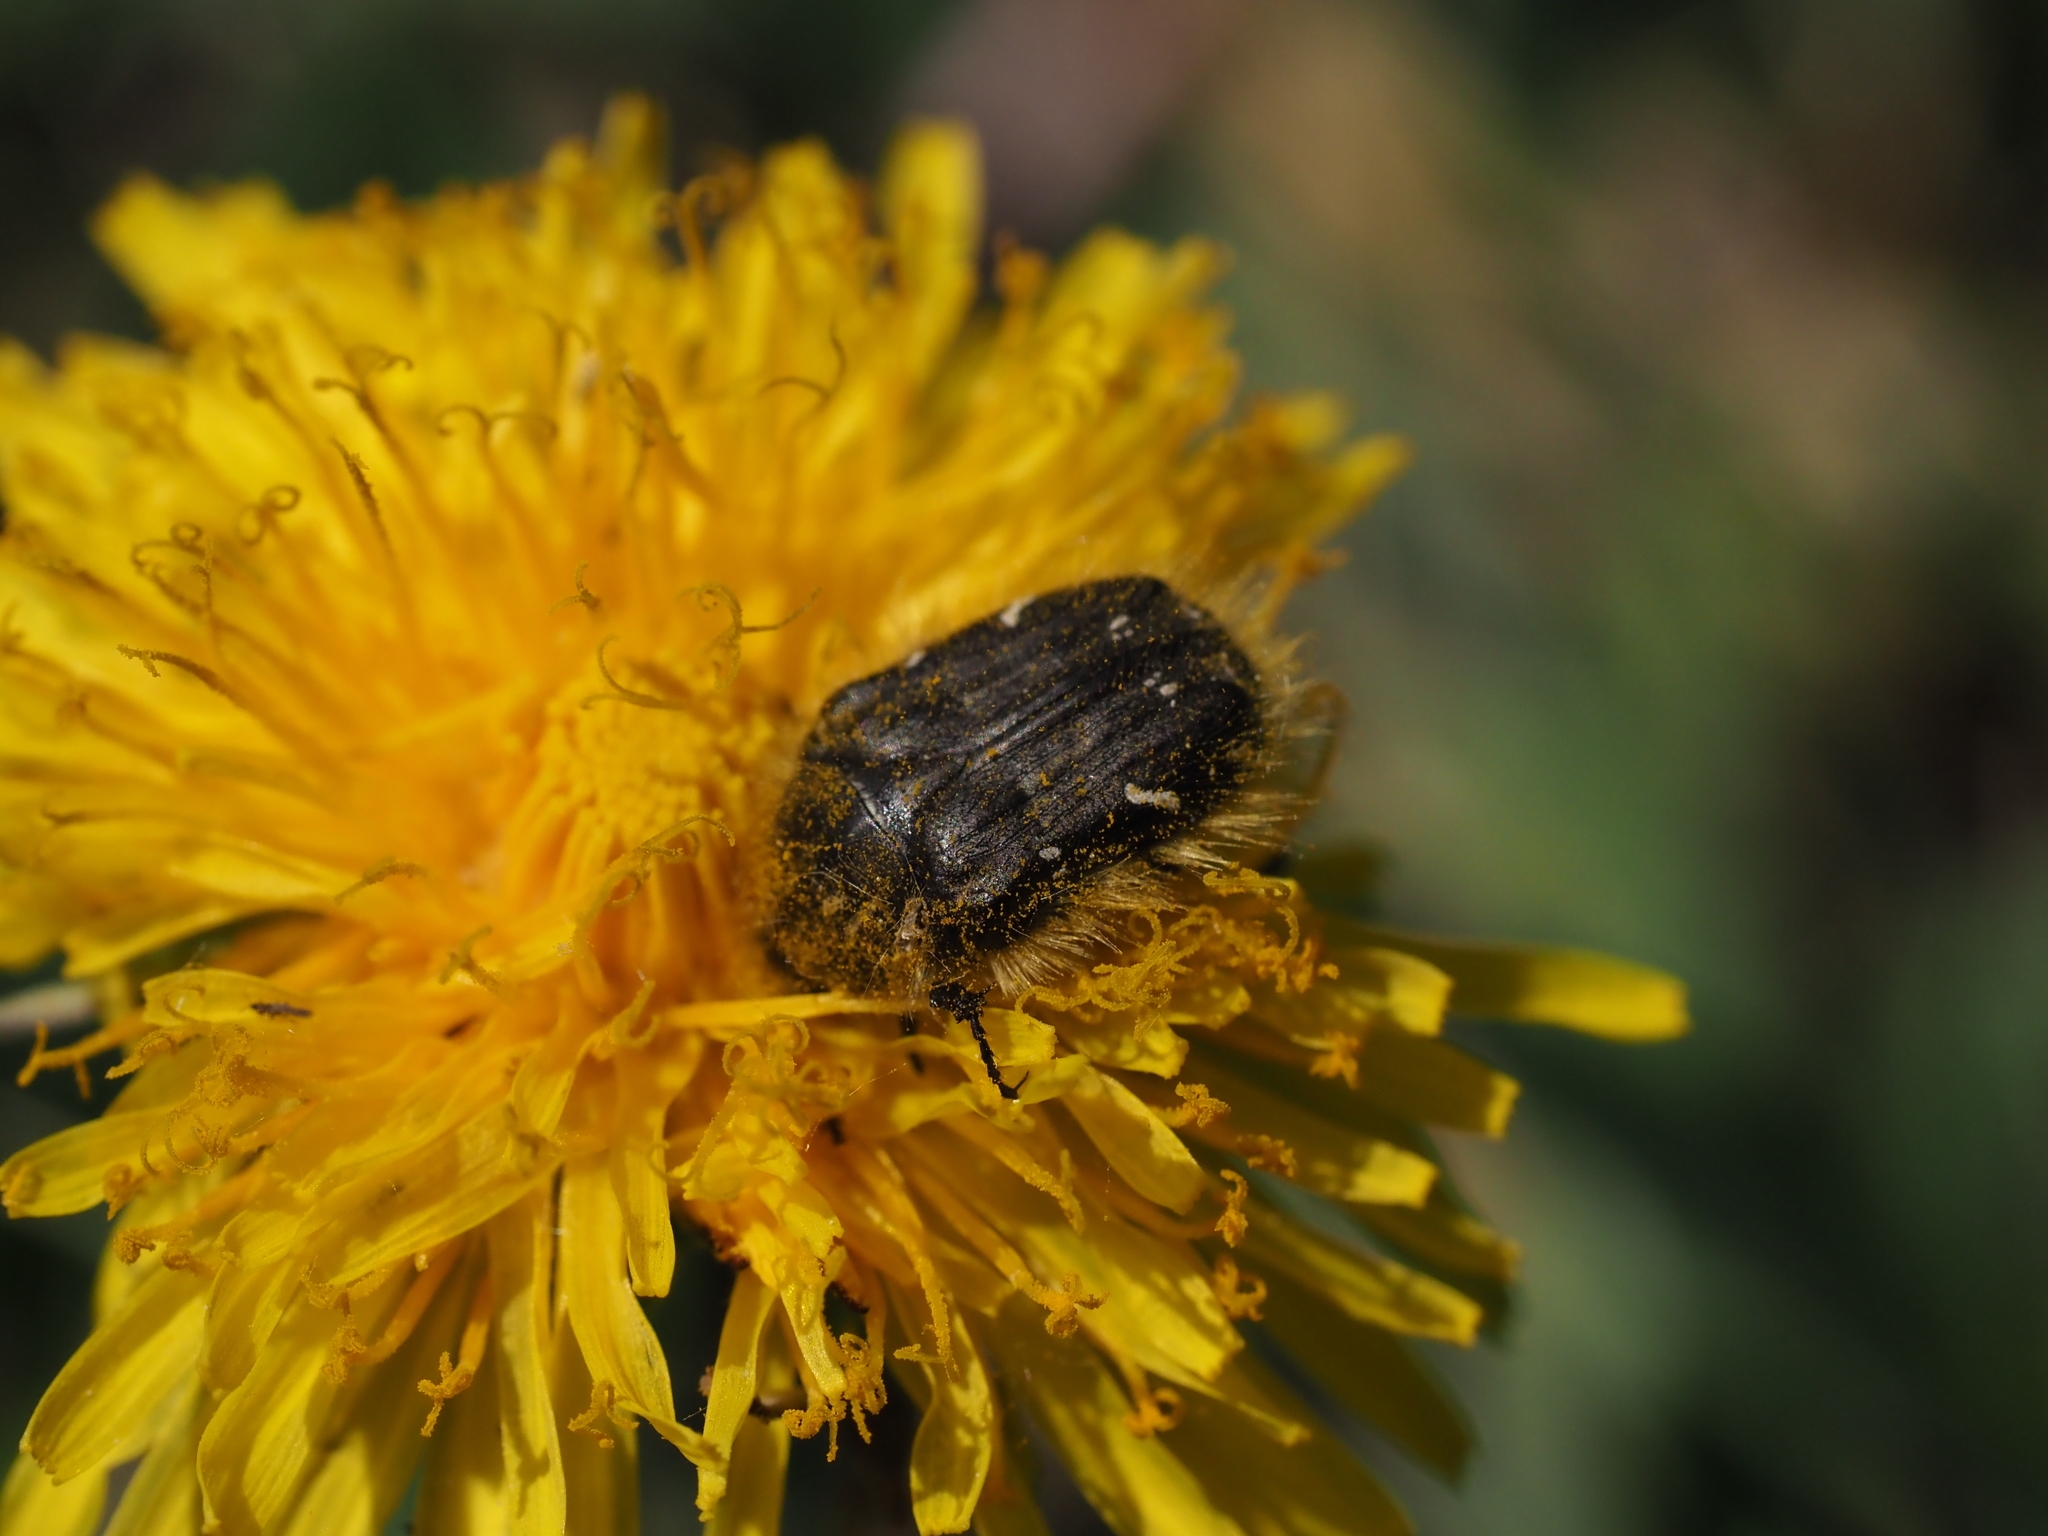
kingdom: Animalia
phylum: Arthropoda
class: Insecta
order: Coleoptera
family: Scarabaeidae
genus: Tropinota
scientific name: Tropinota hirta
